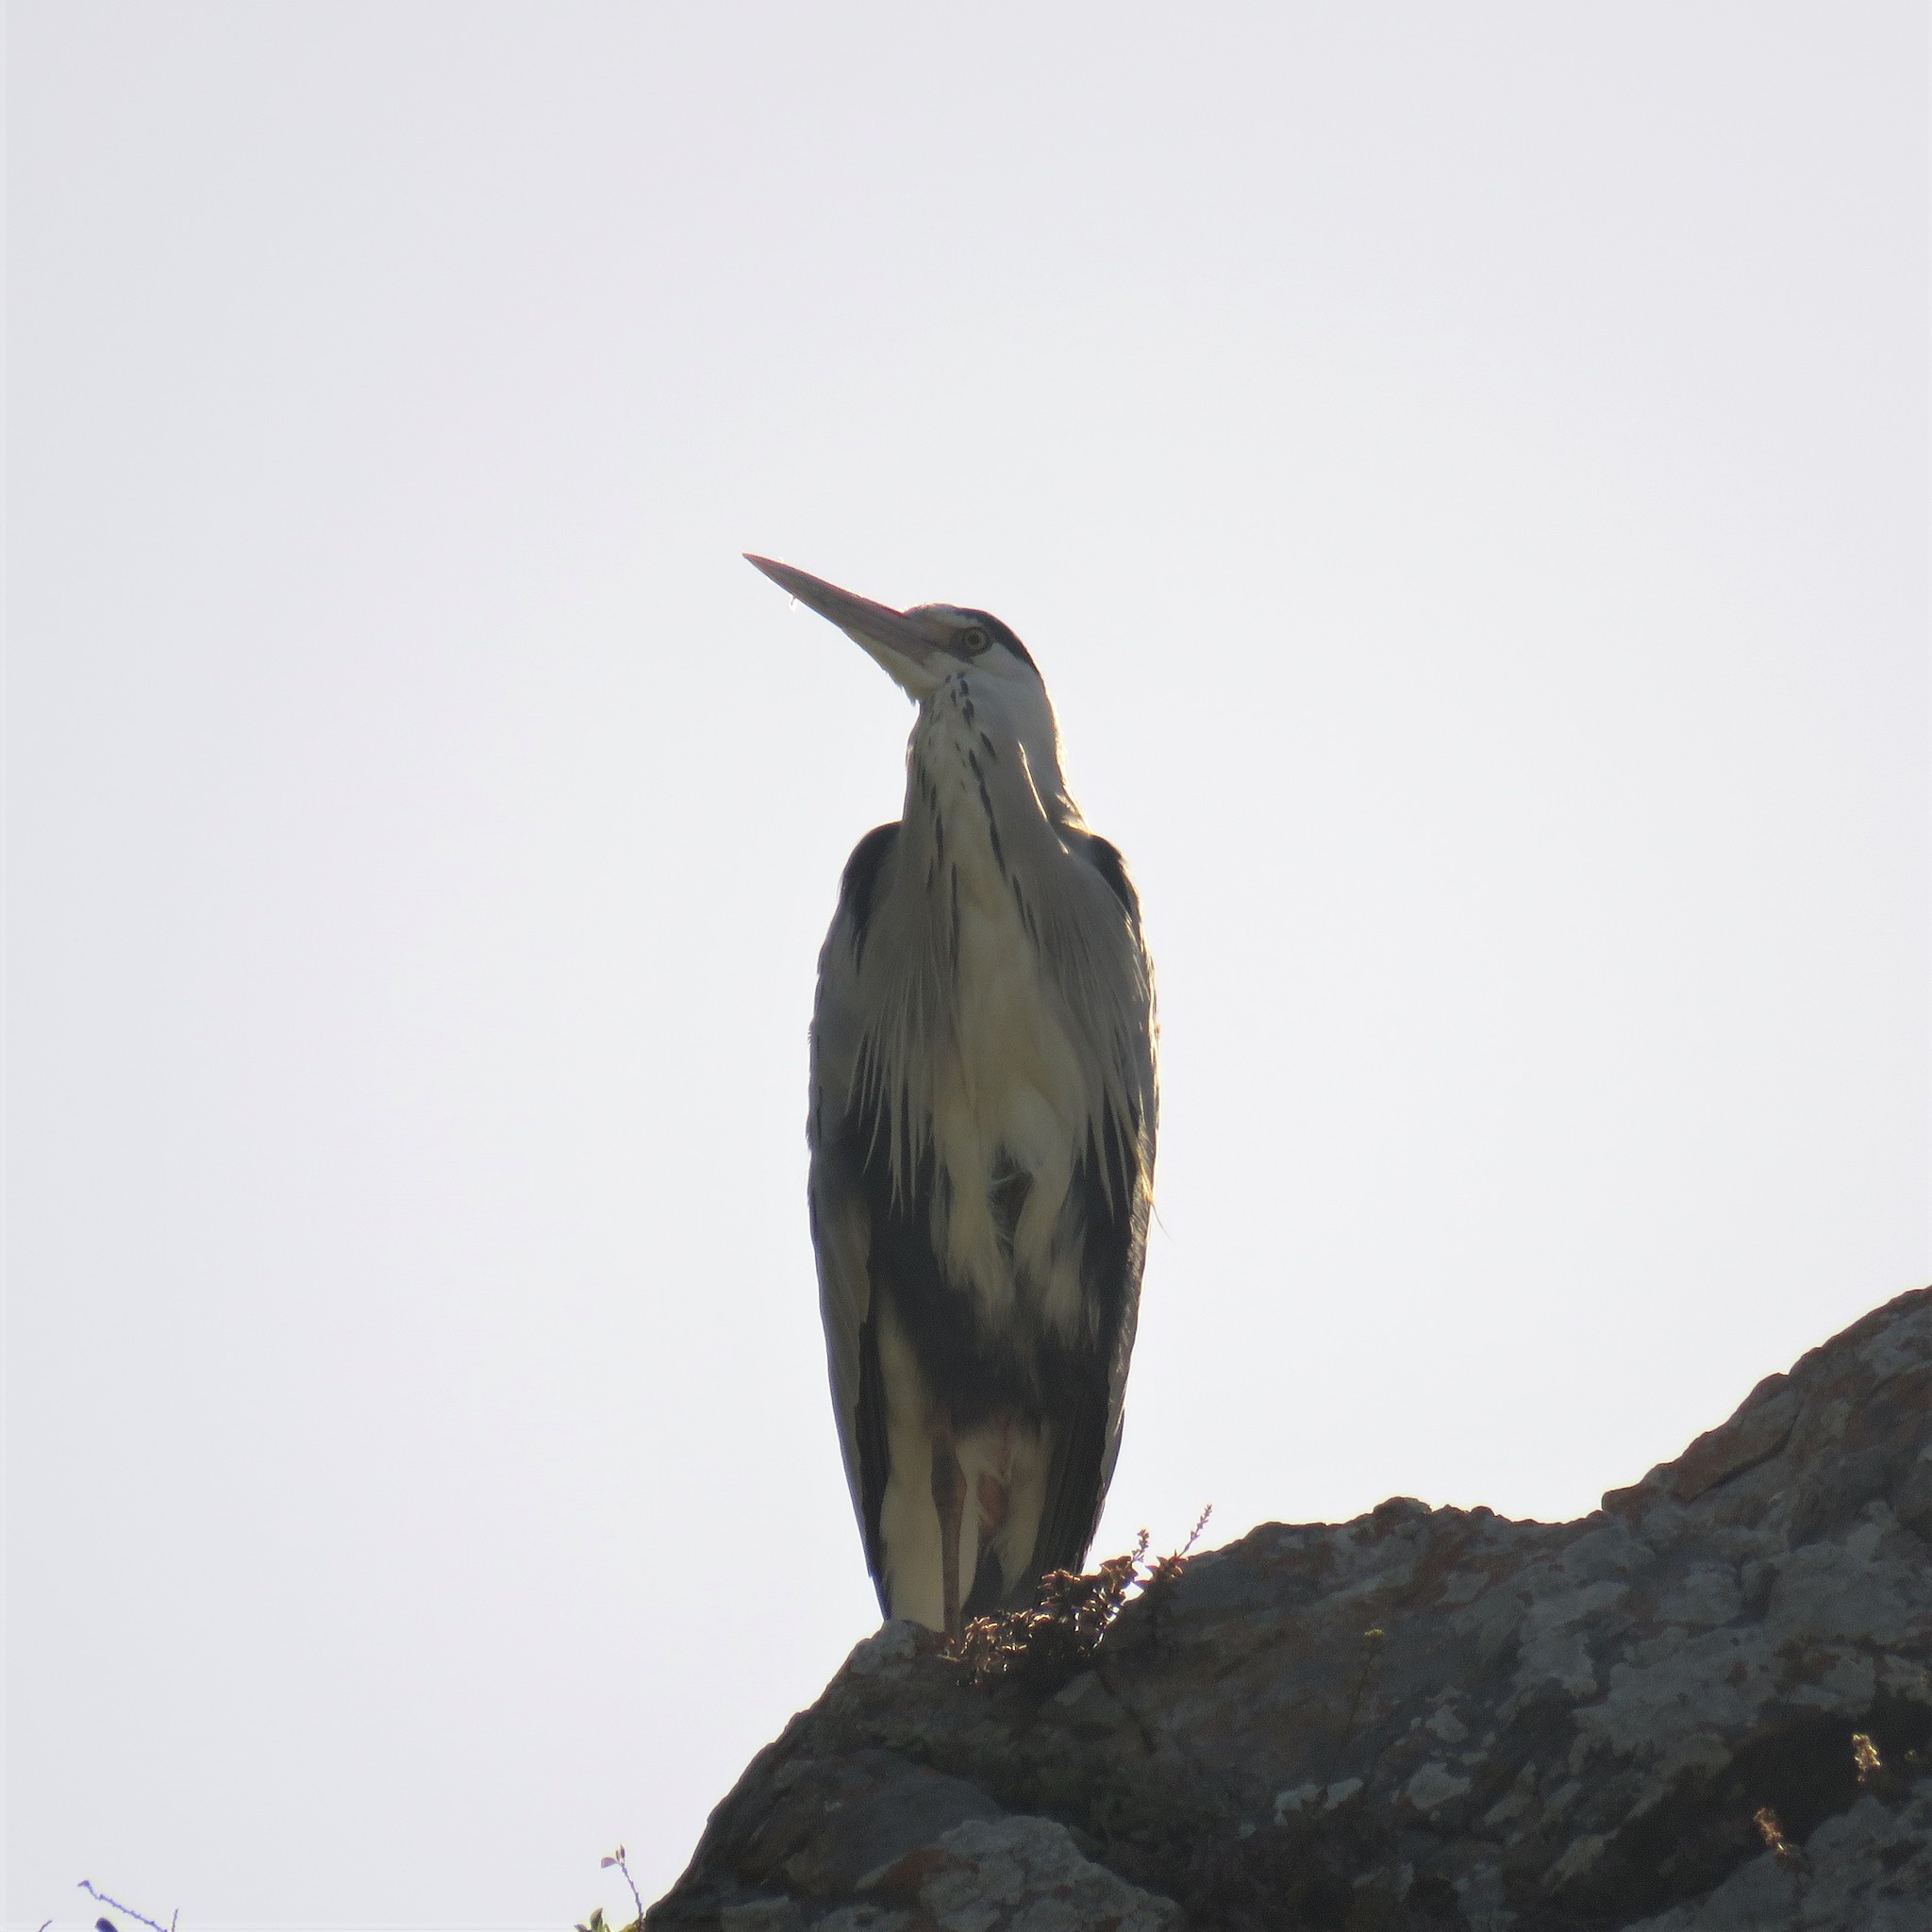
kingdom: Animalia
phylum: Chordata
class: Aves
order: Pelecaniformes
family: Ardeidae
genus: Ardea
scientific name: Ardea cinerea
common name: Grey heron
